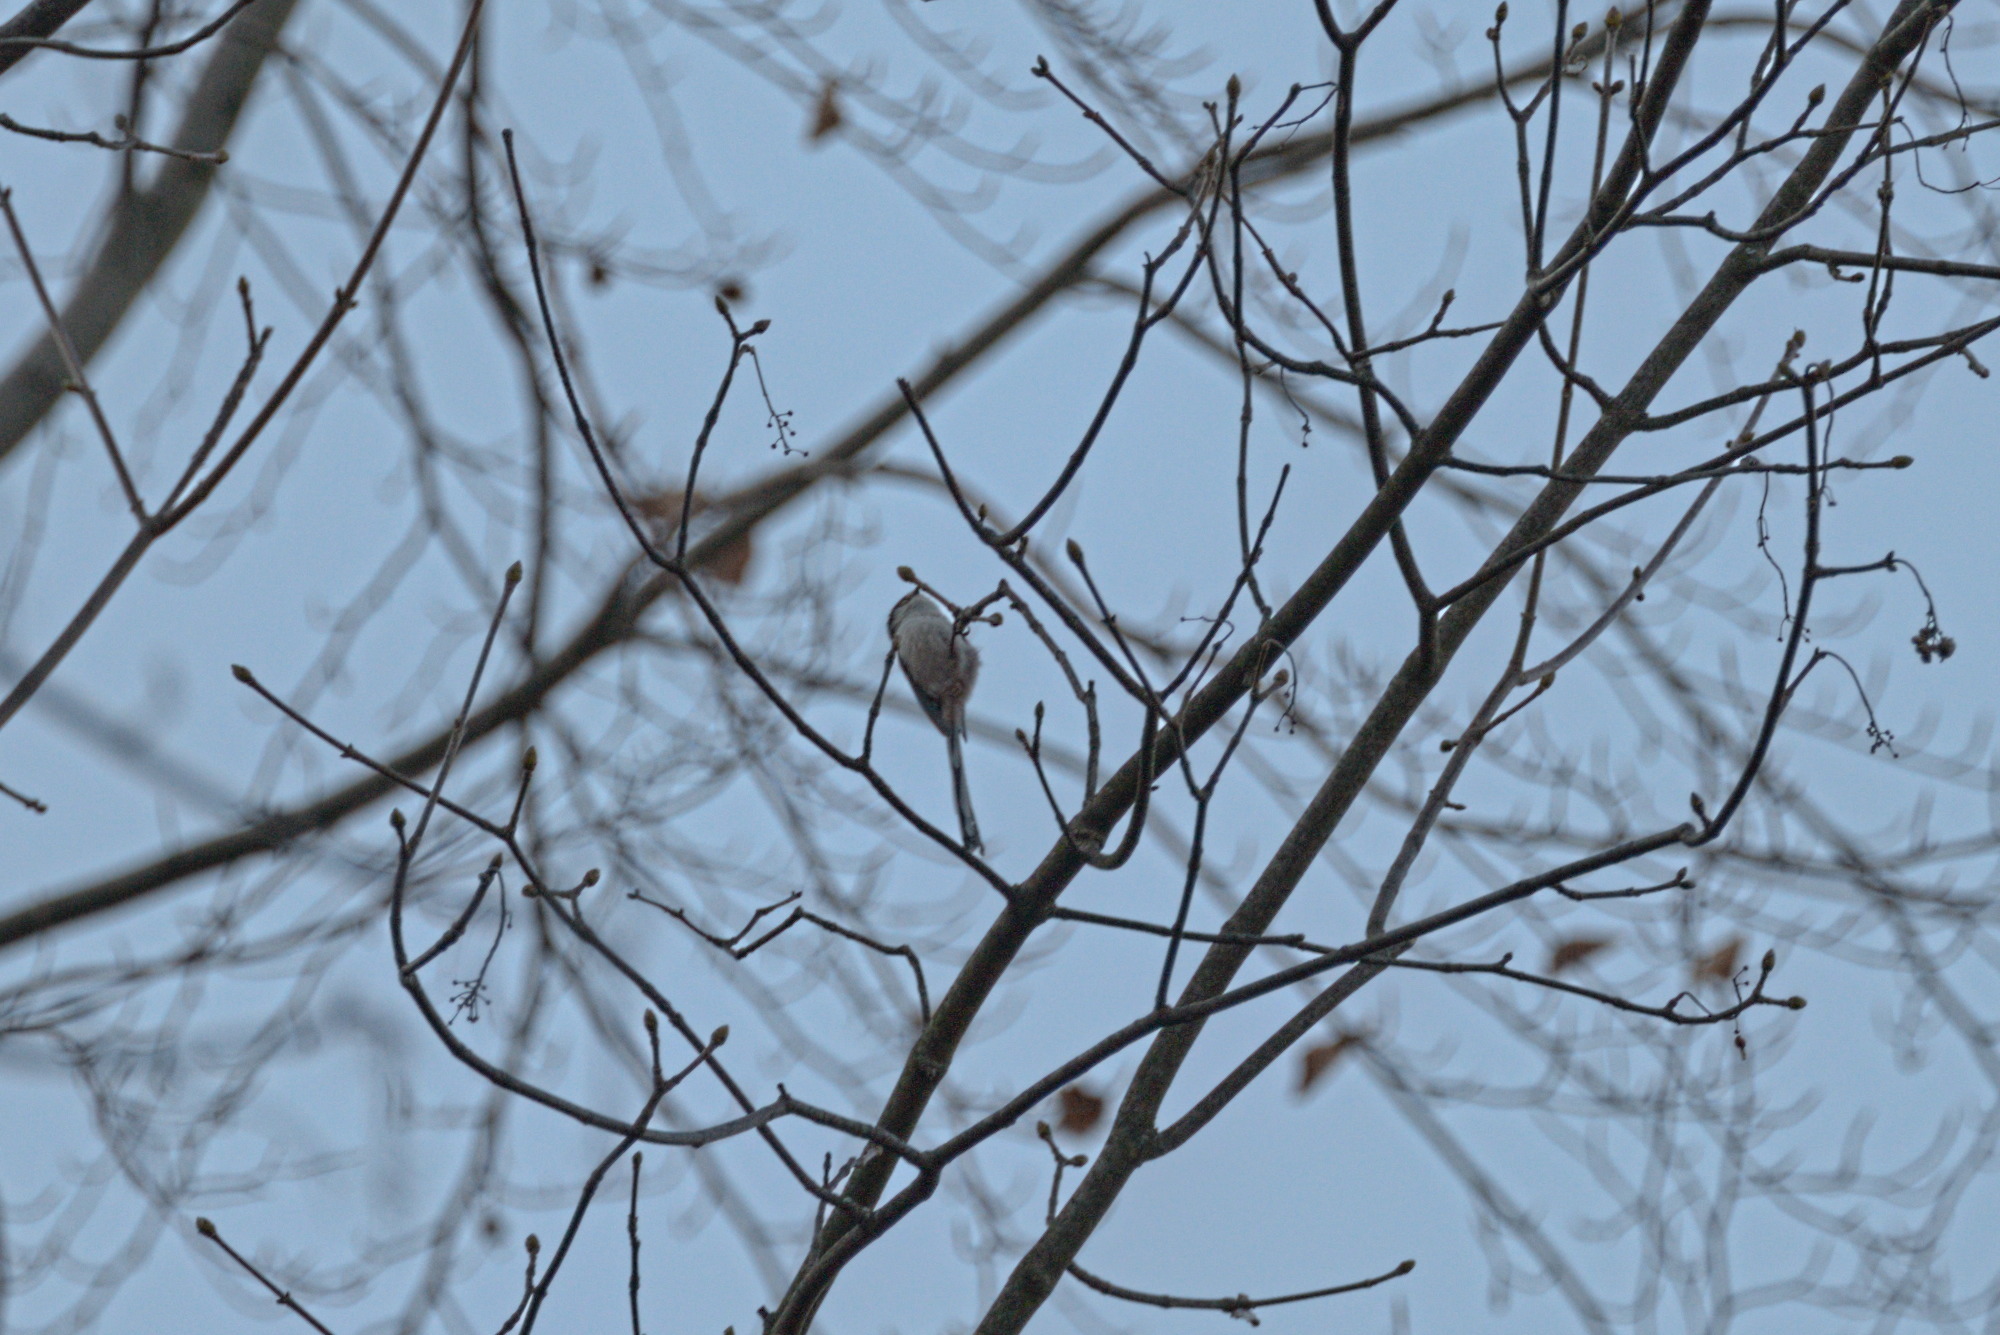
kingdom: Animalia
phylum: Chordata
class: Aves
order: Passeriformes
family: Aegithalidae
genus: Aegithalos
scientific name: Aegithalos caudatus
